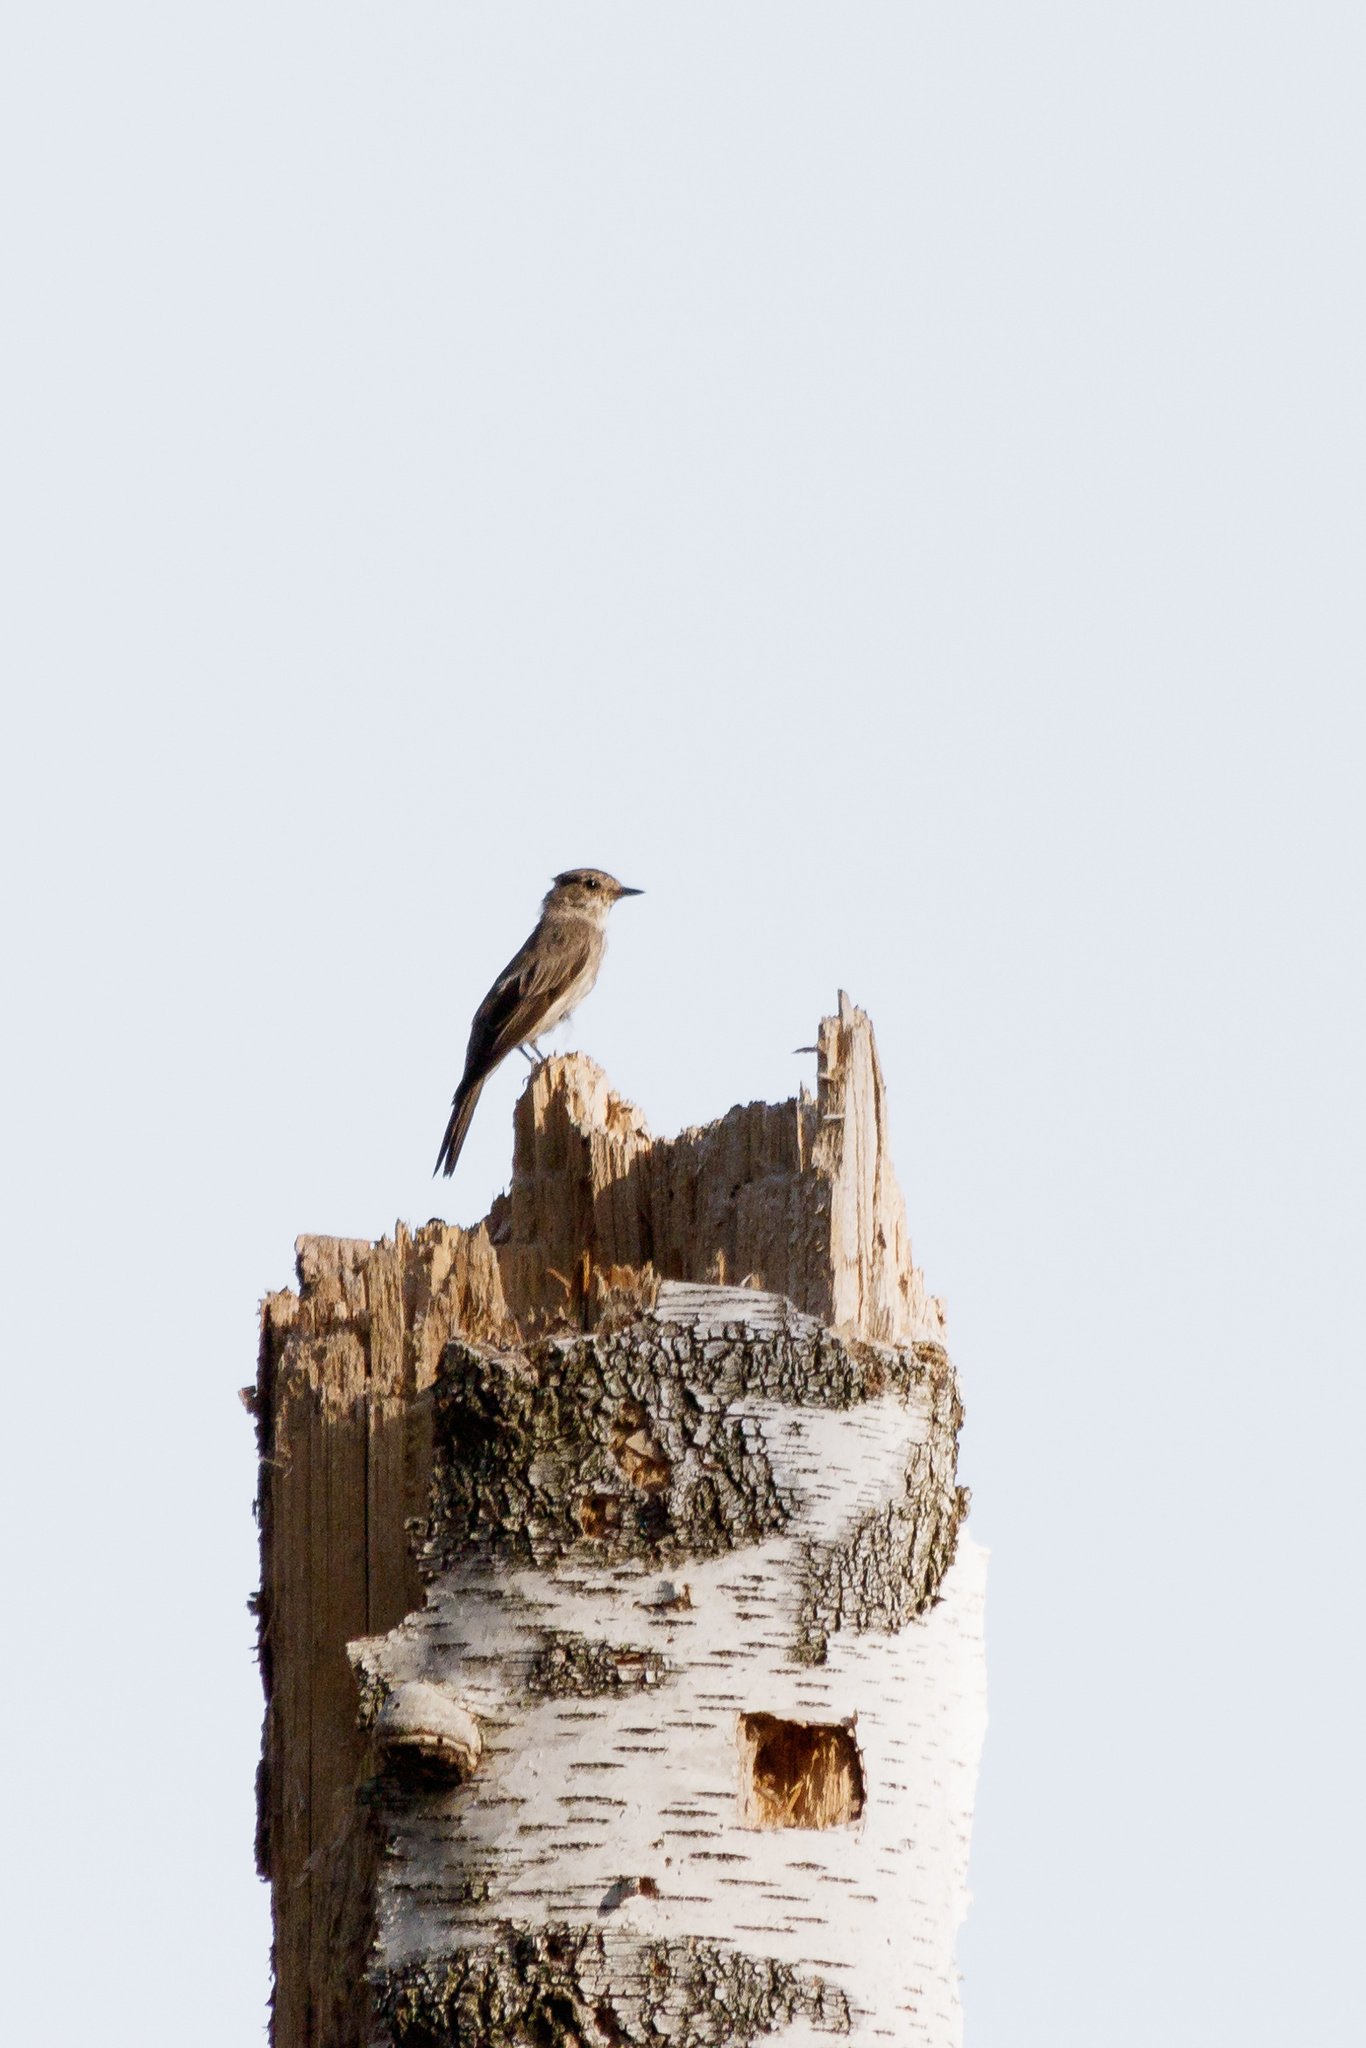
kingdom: Animalia
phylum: Chordata
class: Aves
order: Passeriformes
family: Muscicapidae
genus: Muscicapa
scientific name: Muscicapa striata
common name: Spotted flycatcher
